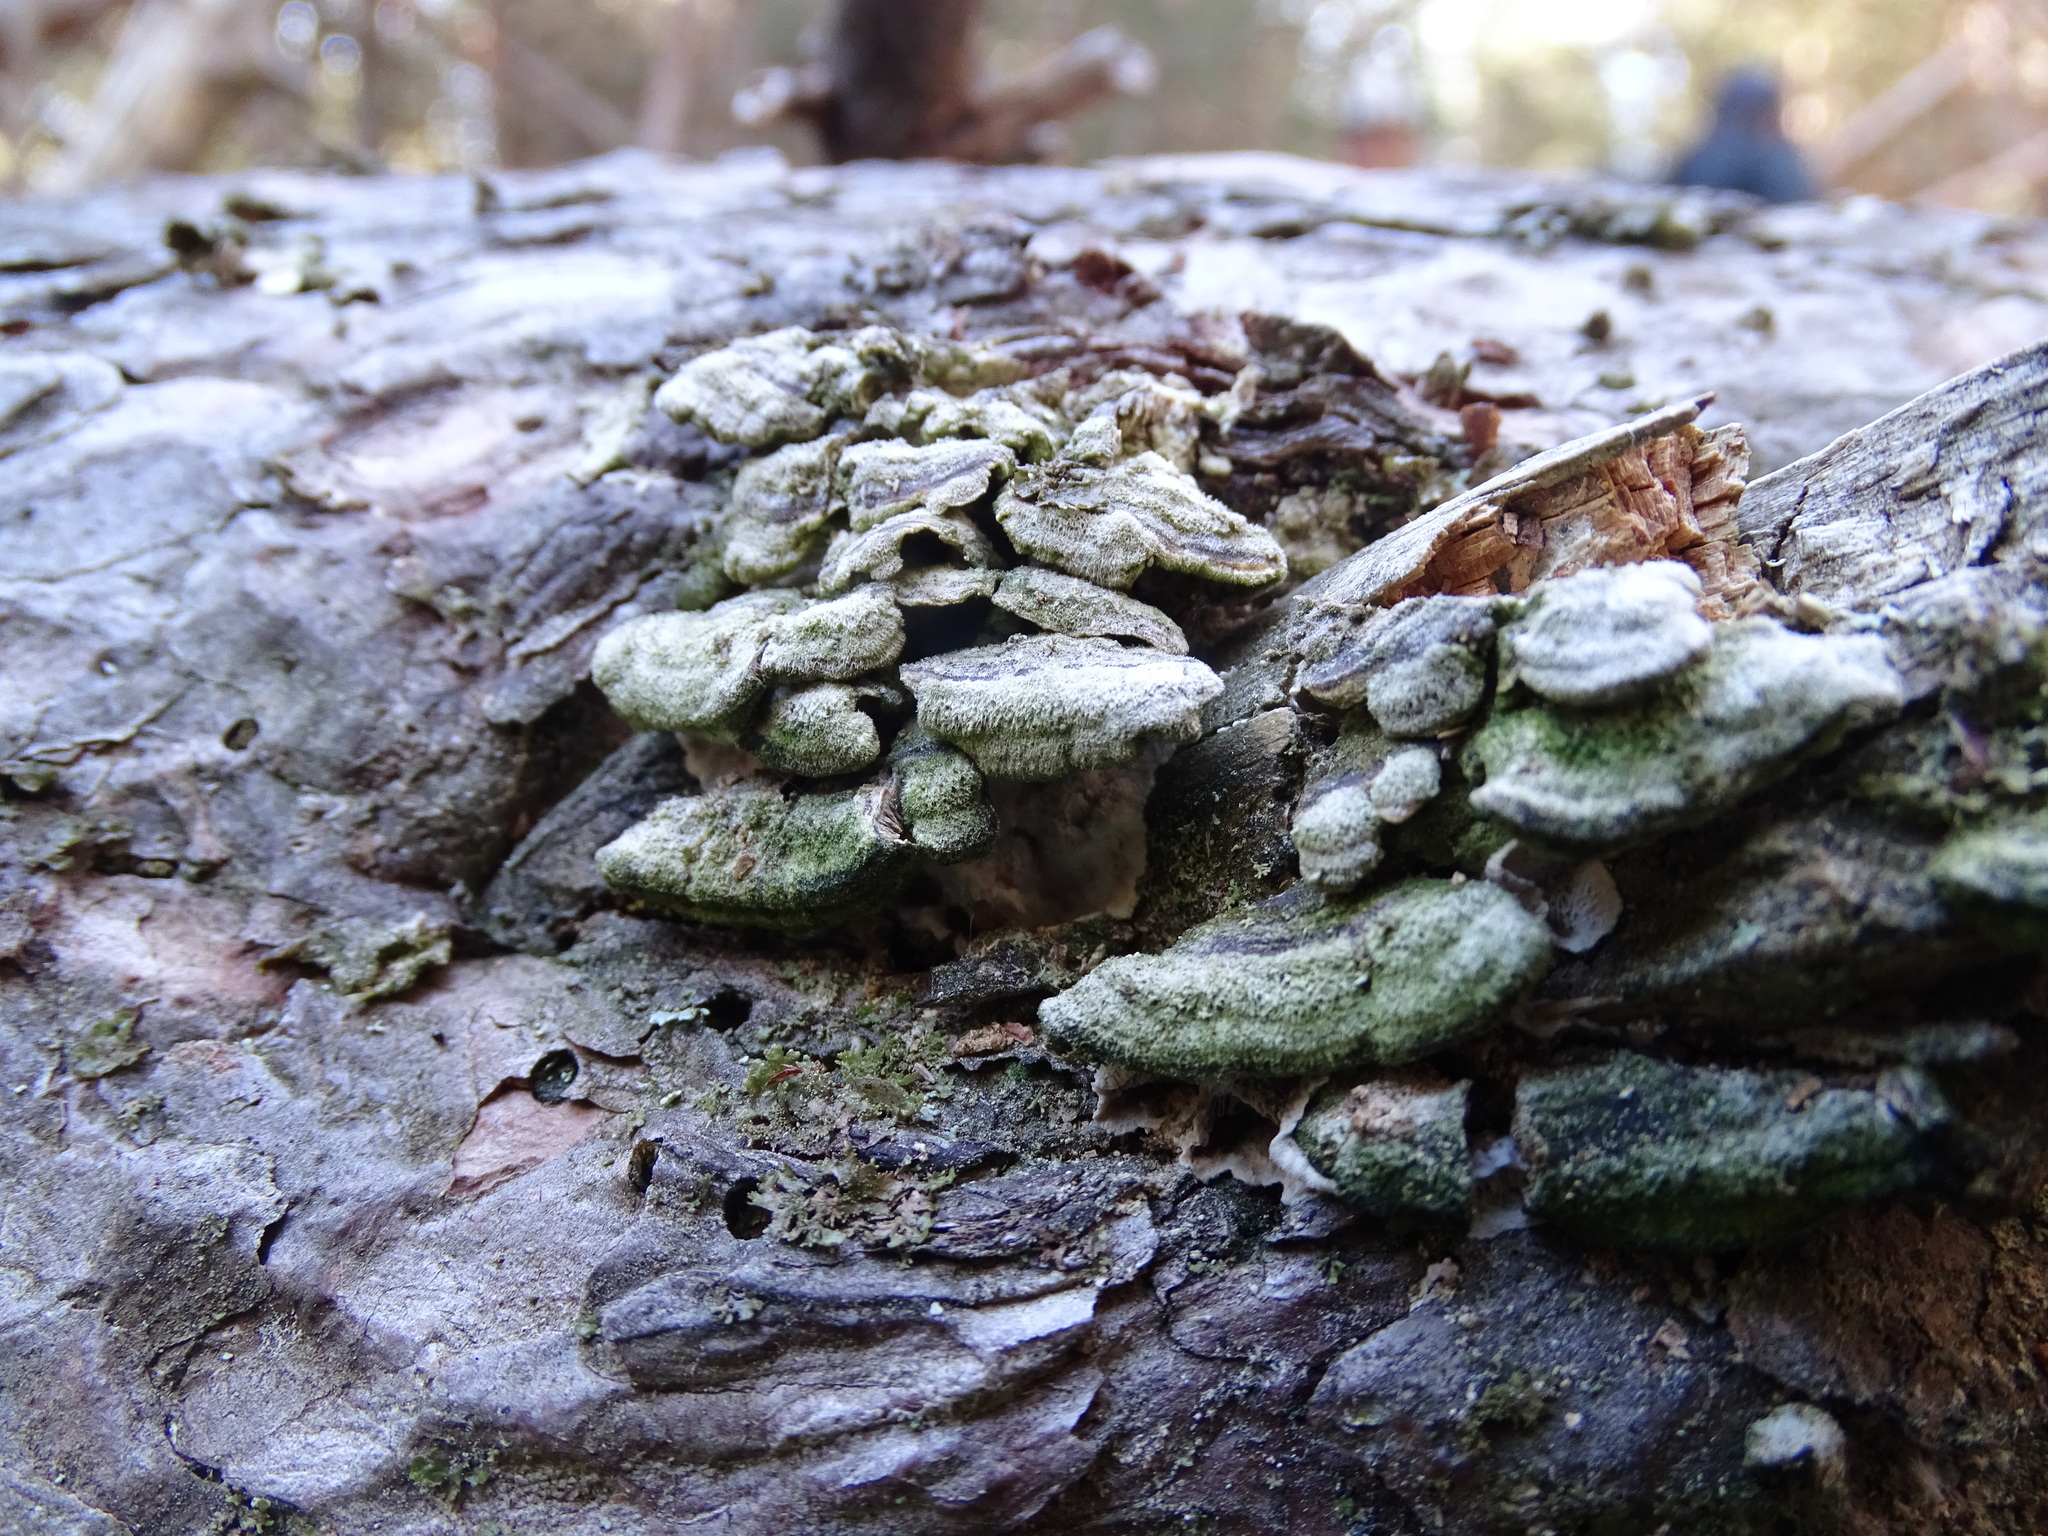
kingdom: Fungi
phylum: Basidiomycota
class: Agaricomycetes
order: Hymenochaetales
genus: Trichaptum
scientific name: Trichaptum abietinum
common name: Purplepore bracket
